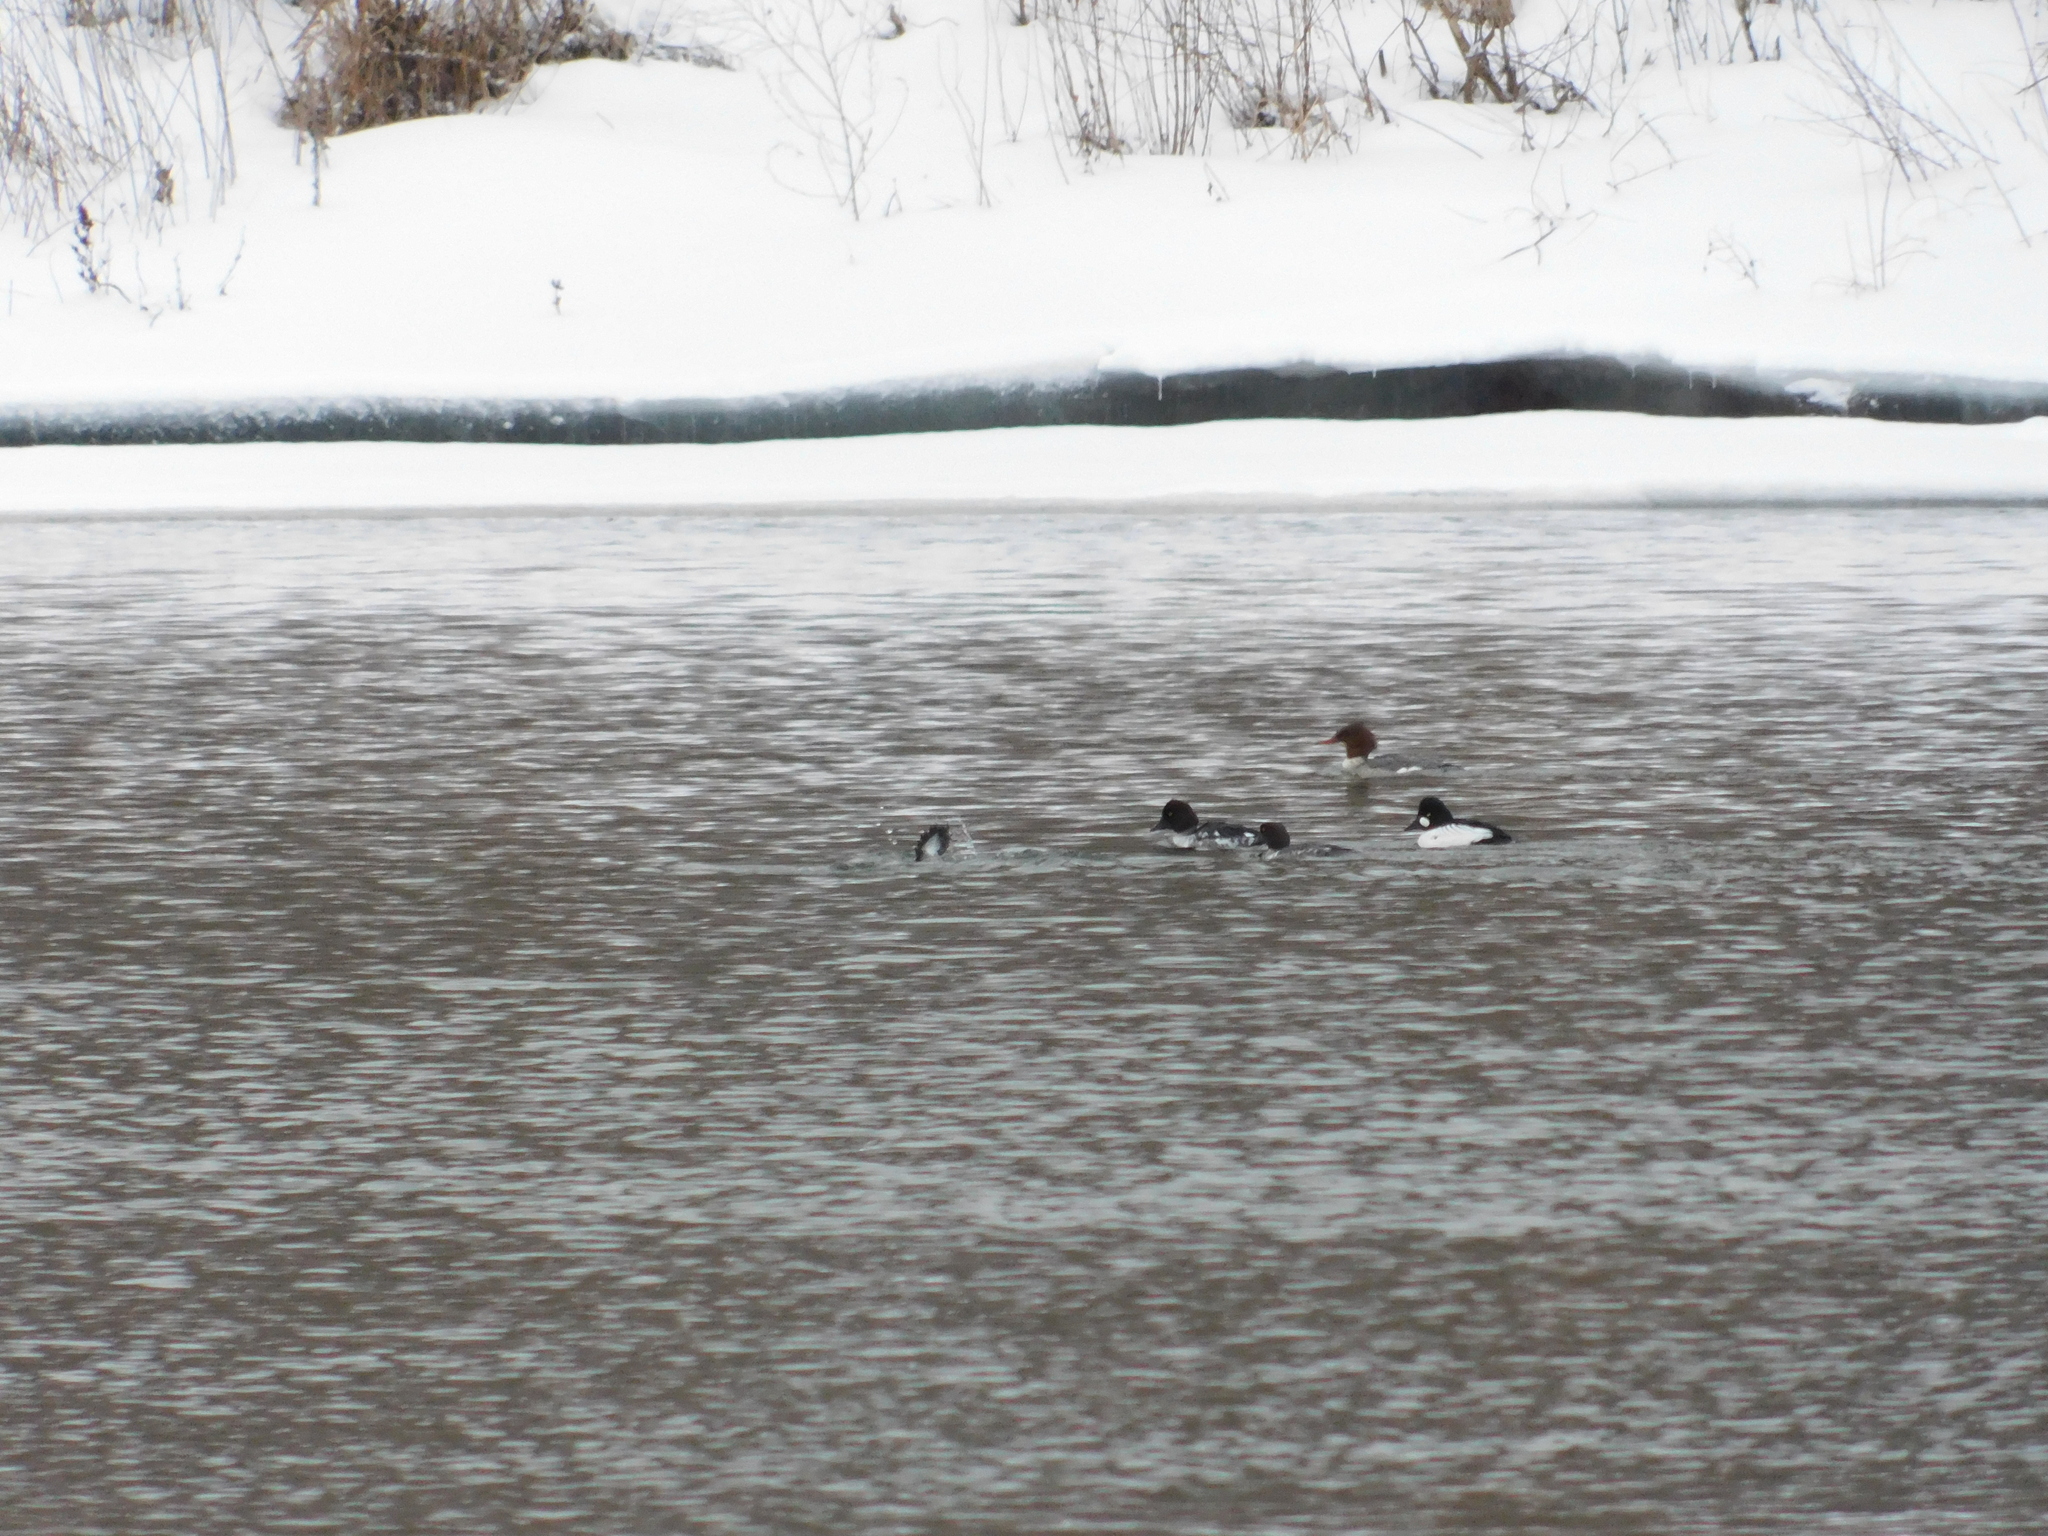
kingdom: Animalia
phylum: Chordata
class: Aves
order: Anseriformes
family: Anatidae
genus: Mergus
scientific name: Mergus merganser
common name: Common merganser
